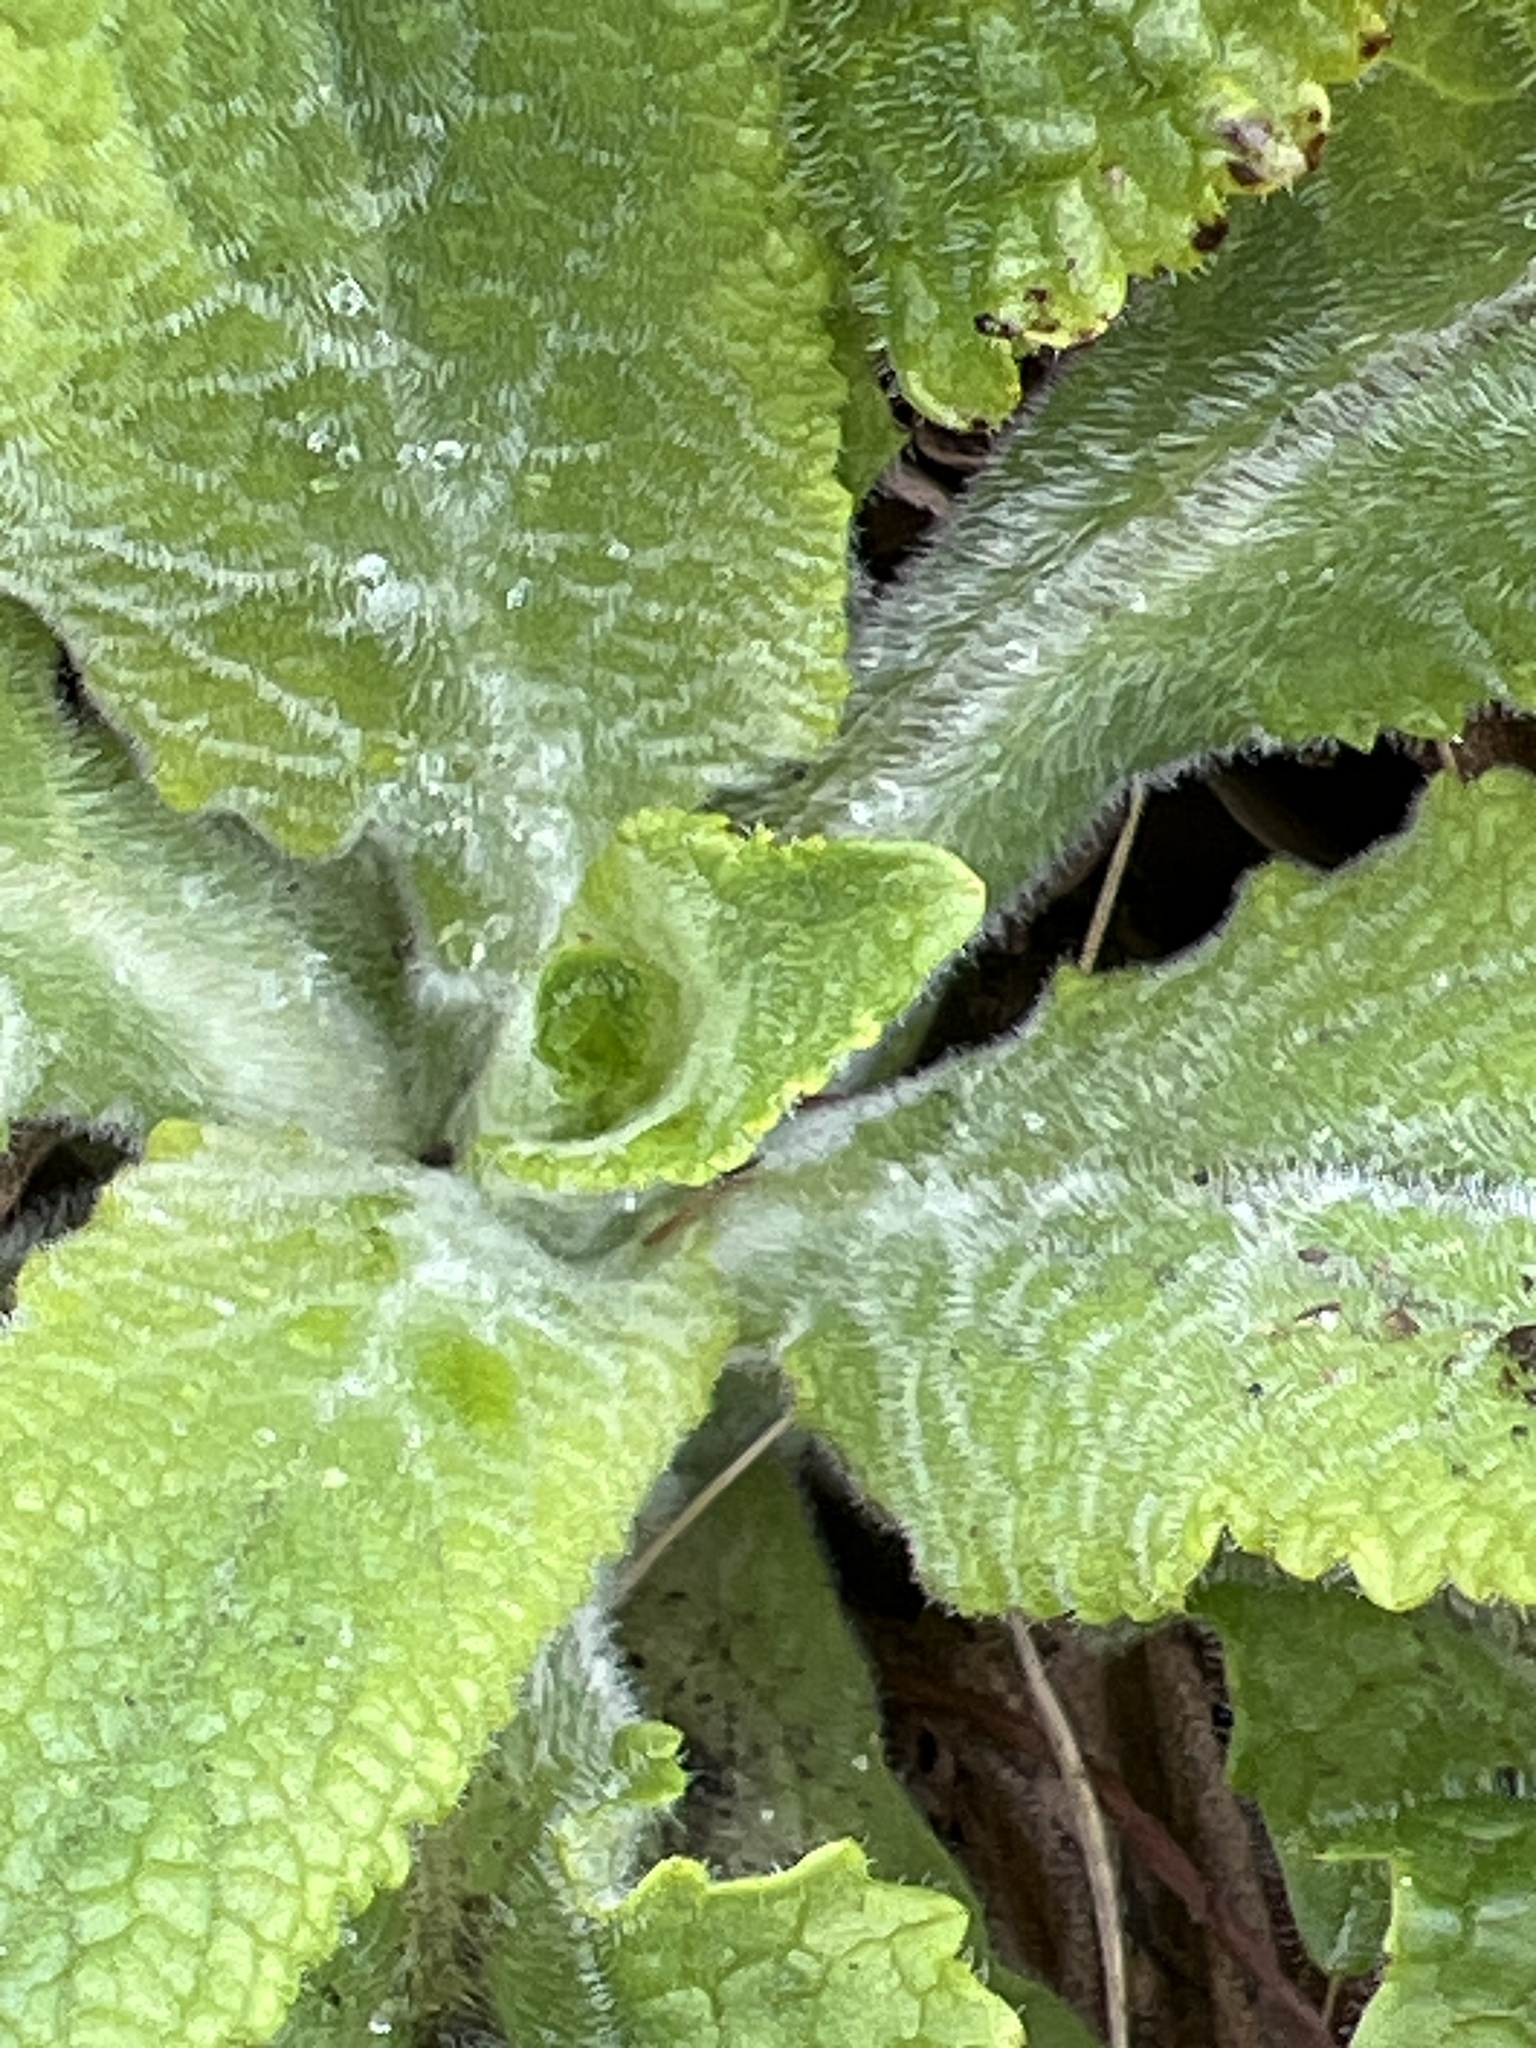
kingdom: Plantae
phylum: Tracheophyta
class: Magnoliopsida
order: Lamiales
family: Plantaginaceae
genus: Digitalis
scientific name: Digitalis purpurea
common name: Foxglove
